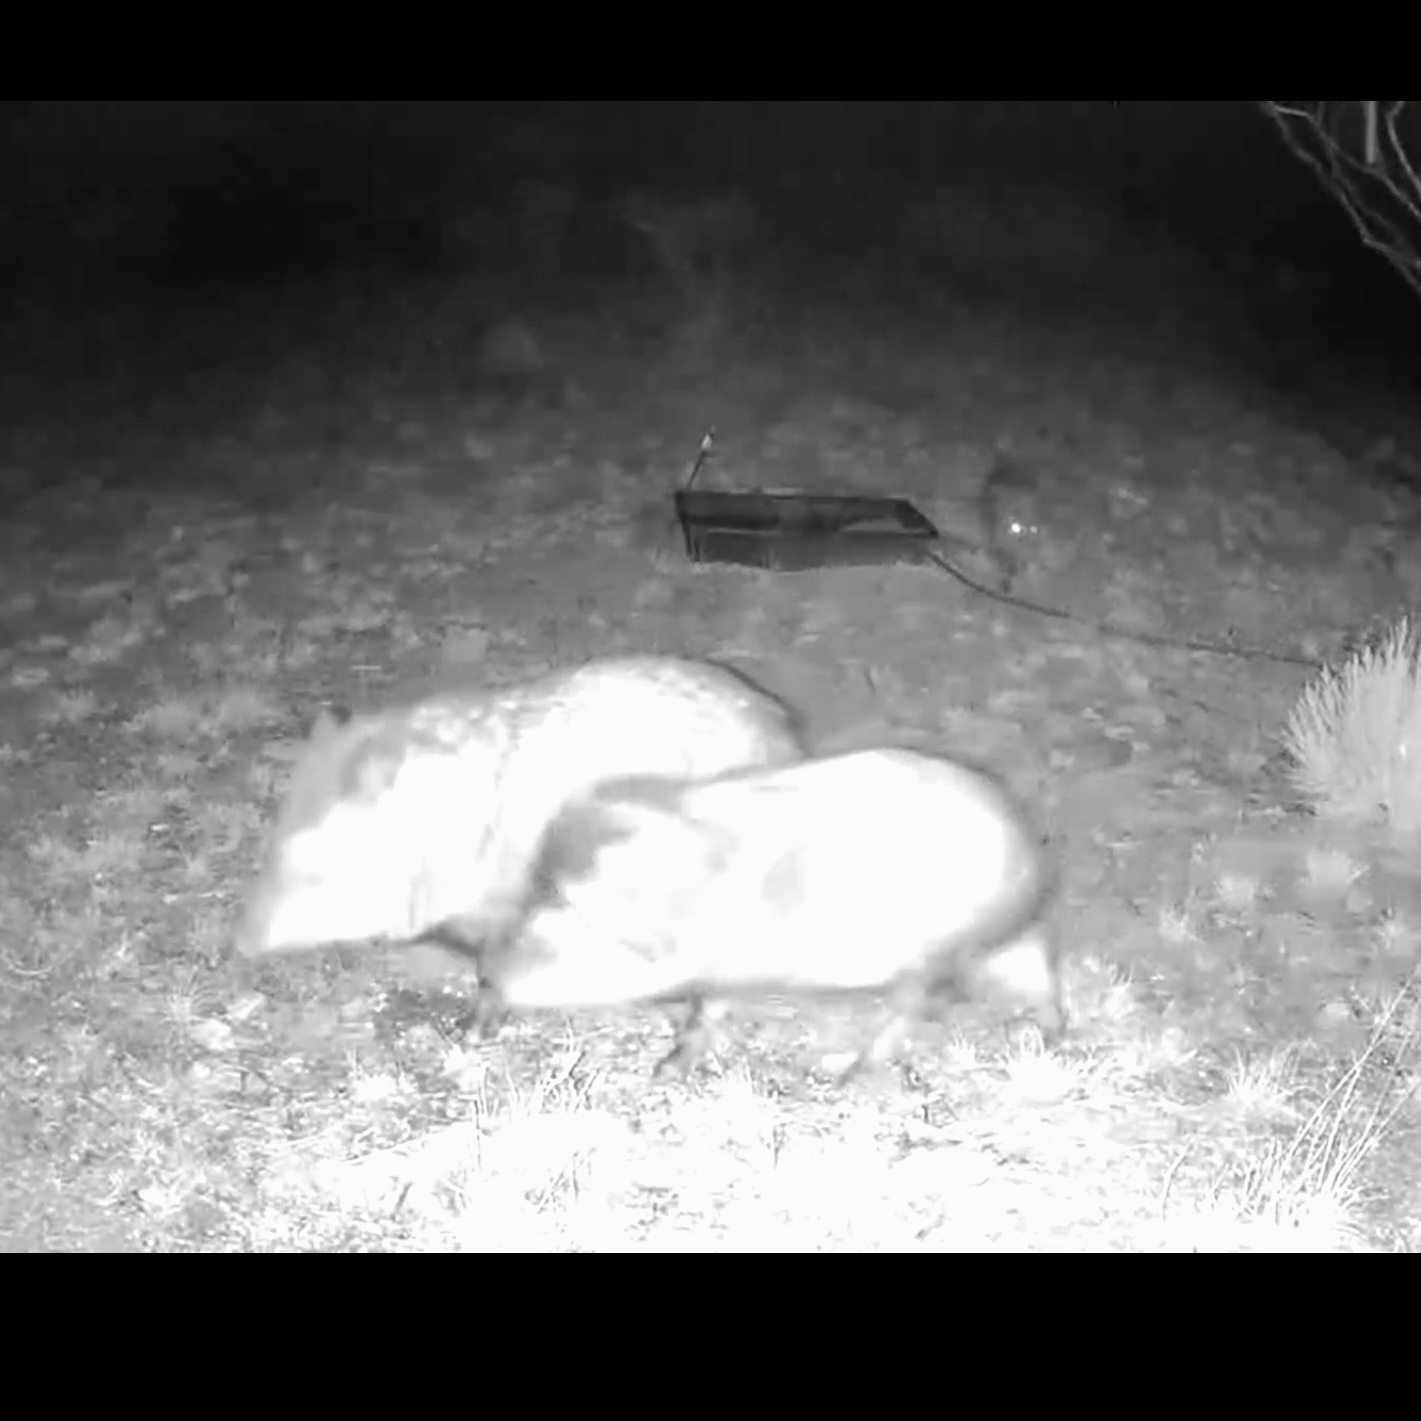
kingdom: Animalia
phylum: Chordata
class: Mammalia
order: Artiodactyla
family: Tayassuidae
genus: Pecari
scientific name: Pecari tajacu
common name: Collared peccary
